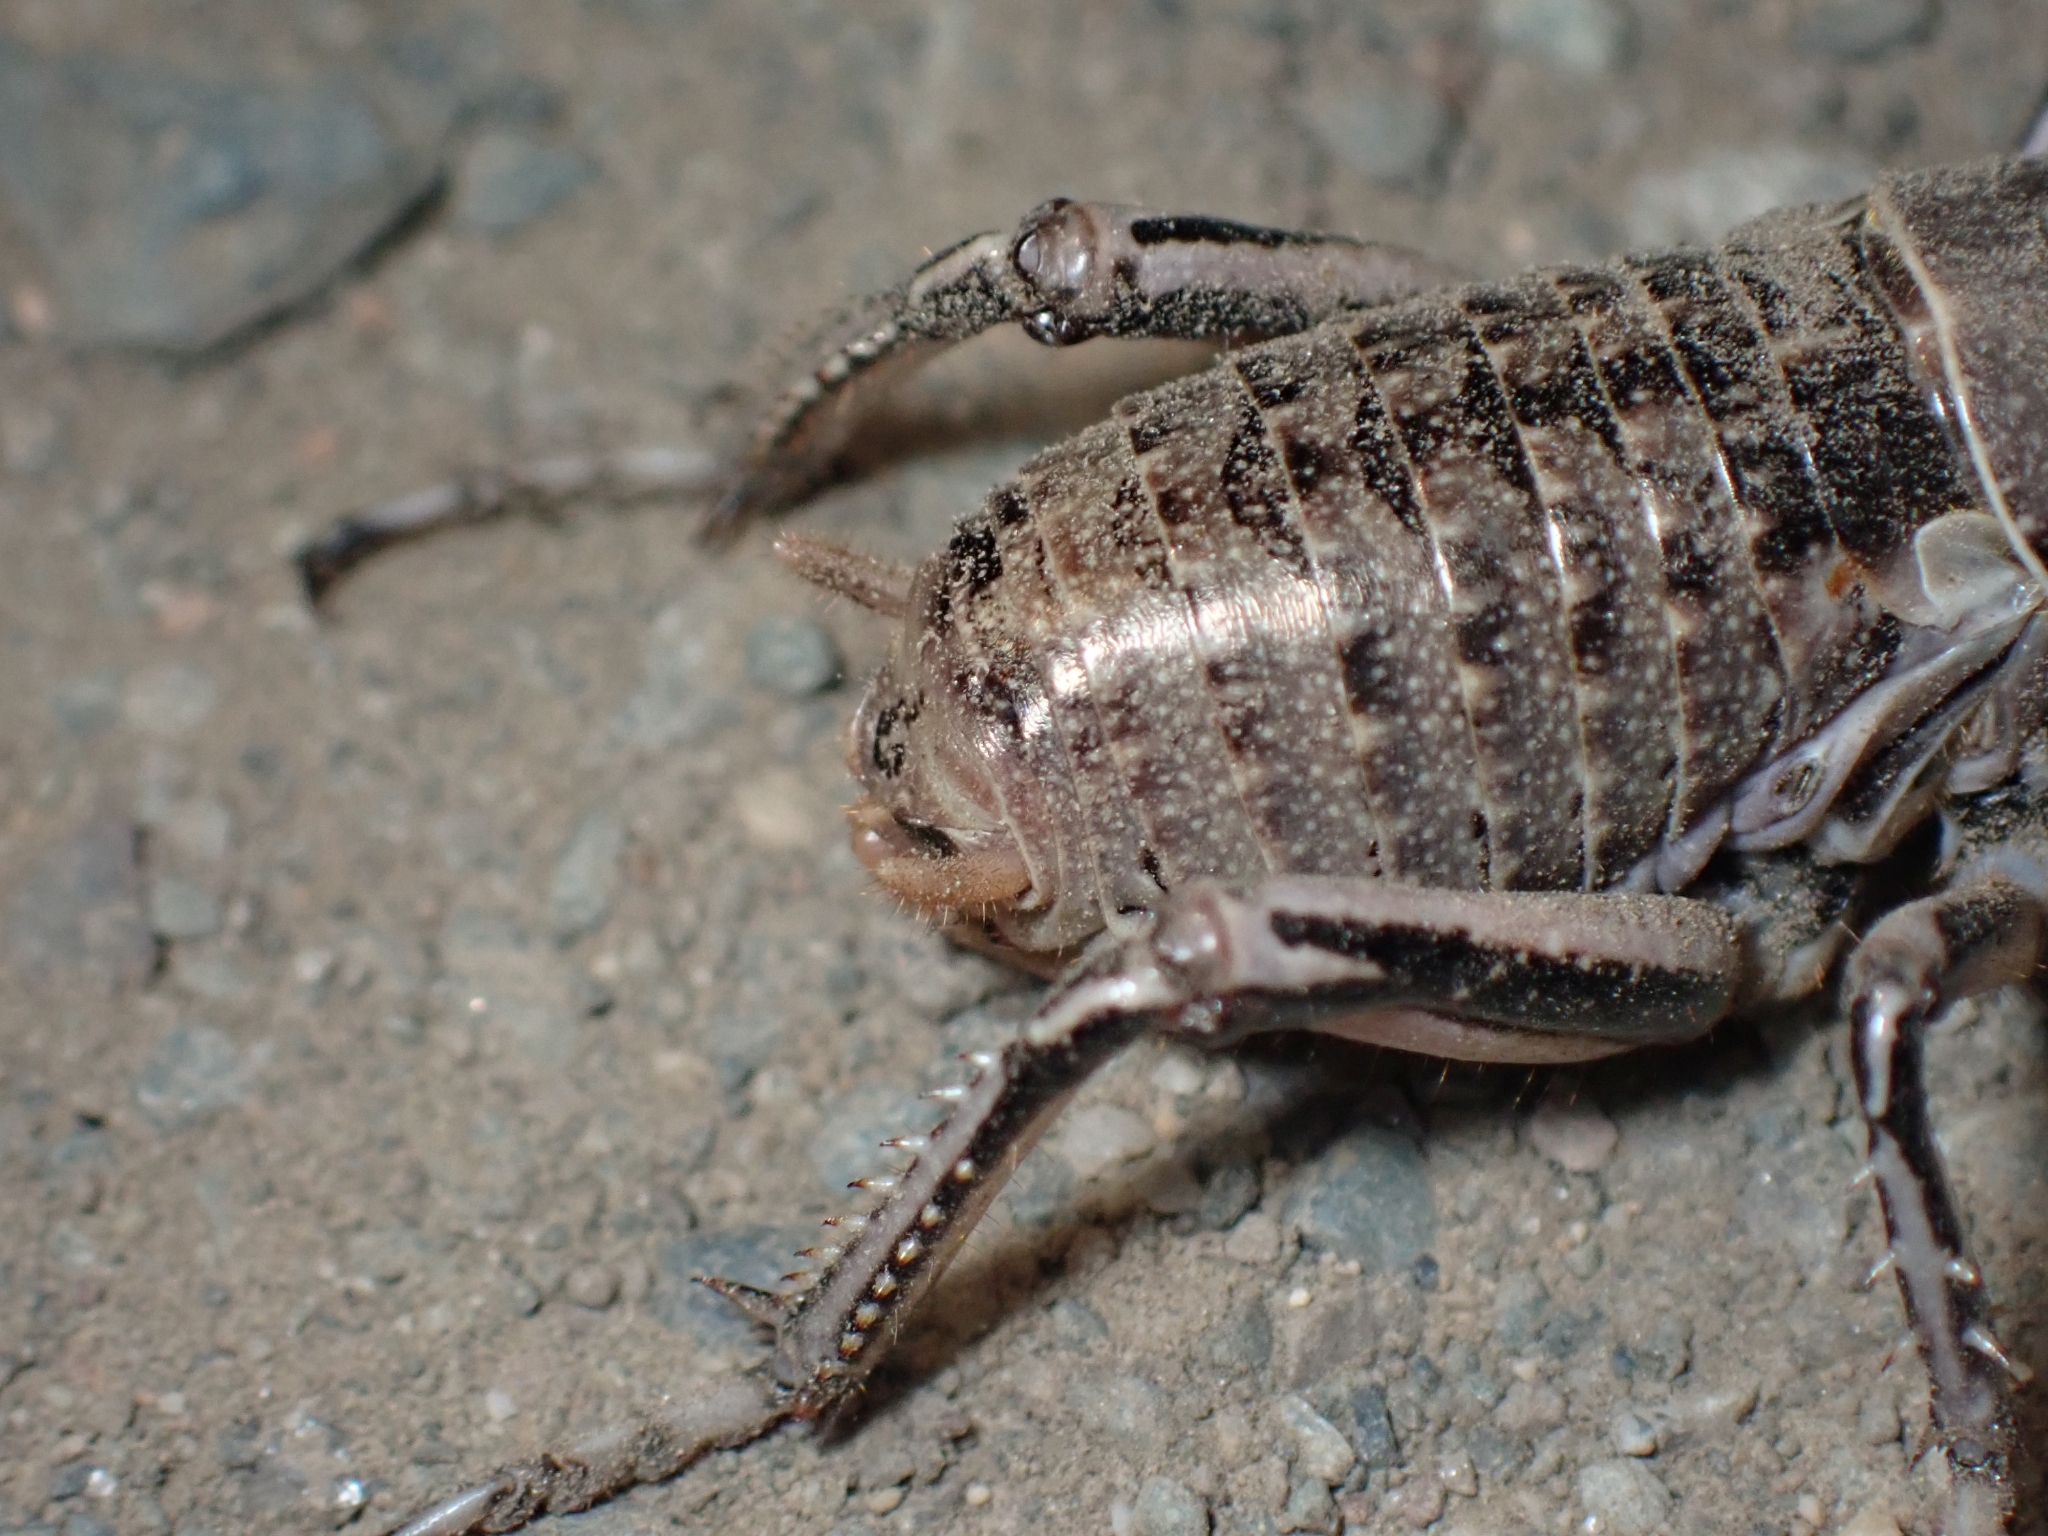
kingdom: Animalia
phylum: Arthropoda
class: Insecta
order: Orthoptera
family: Prophalangopsidae
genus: Cyphoderris
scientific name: Cyphoderris monstrosa
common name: Great grig
